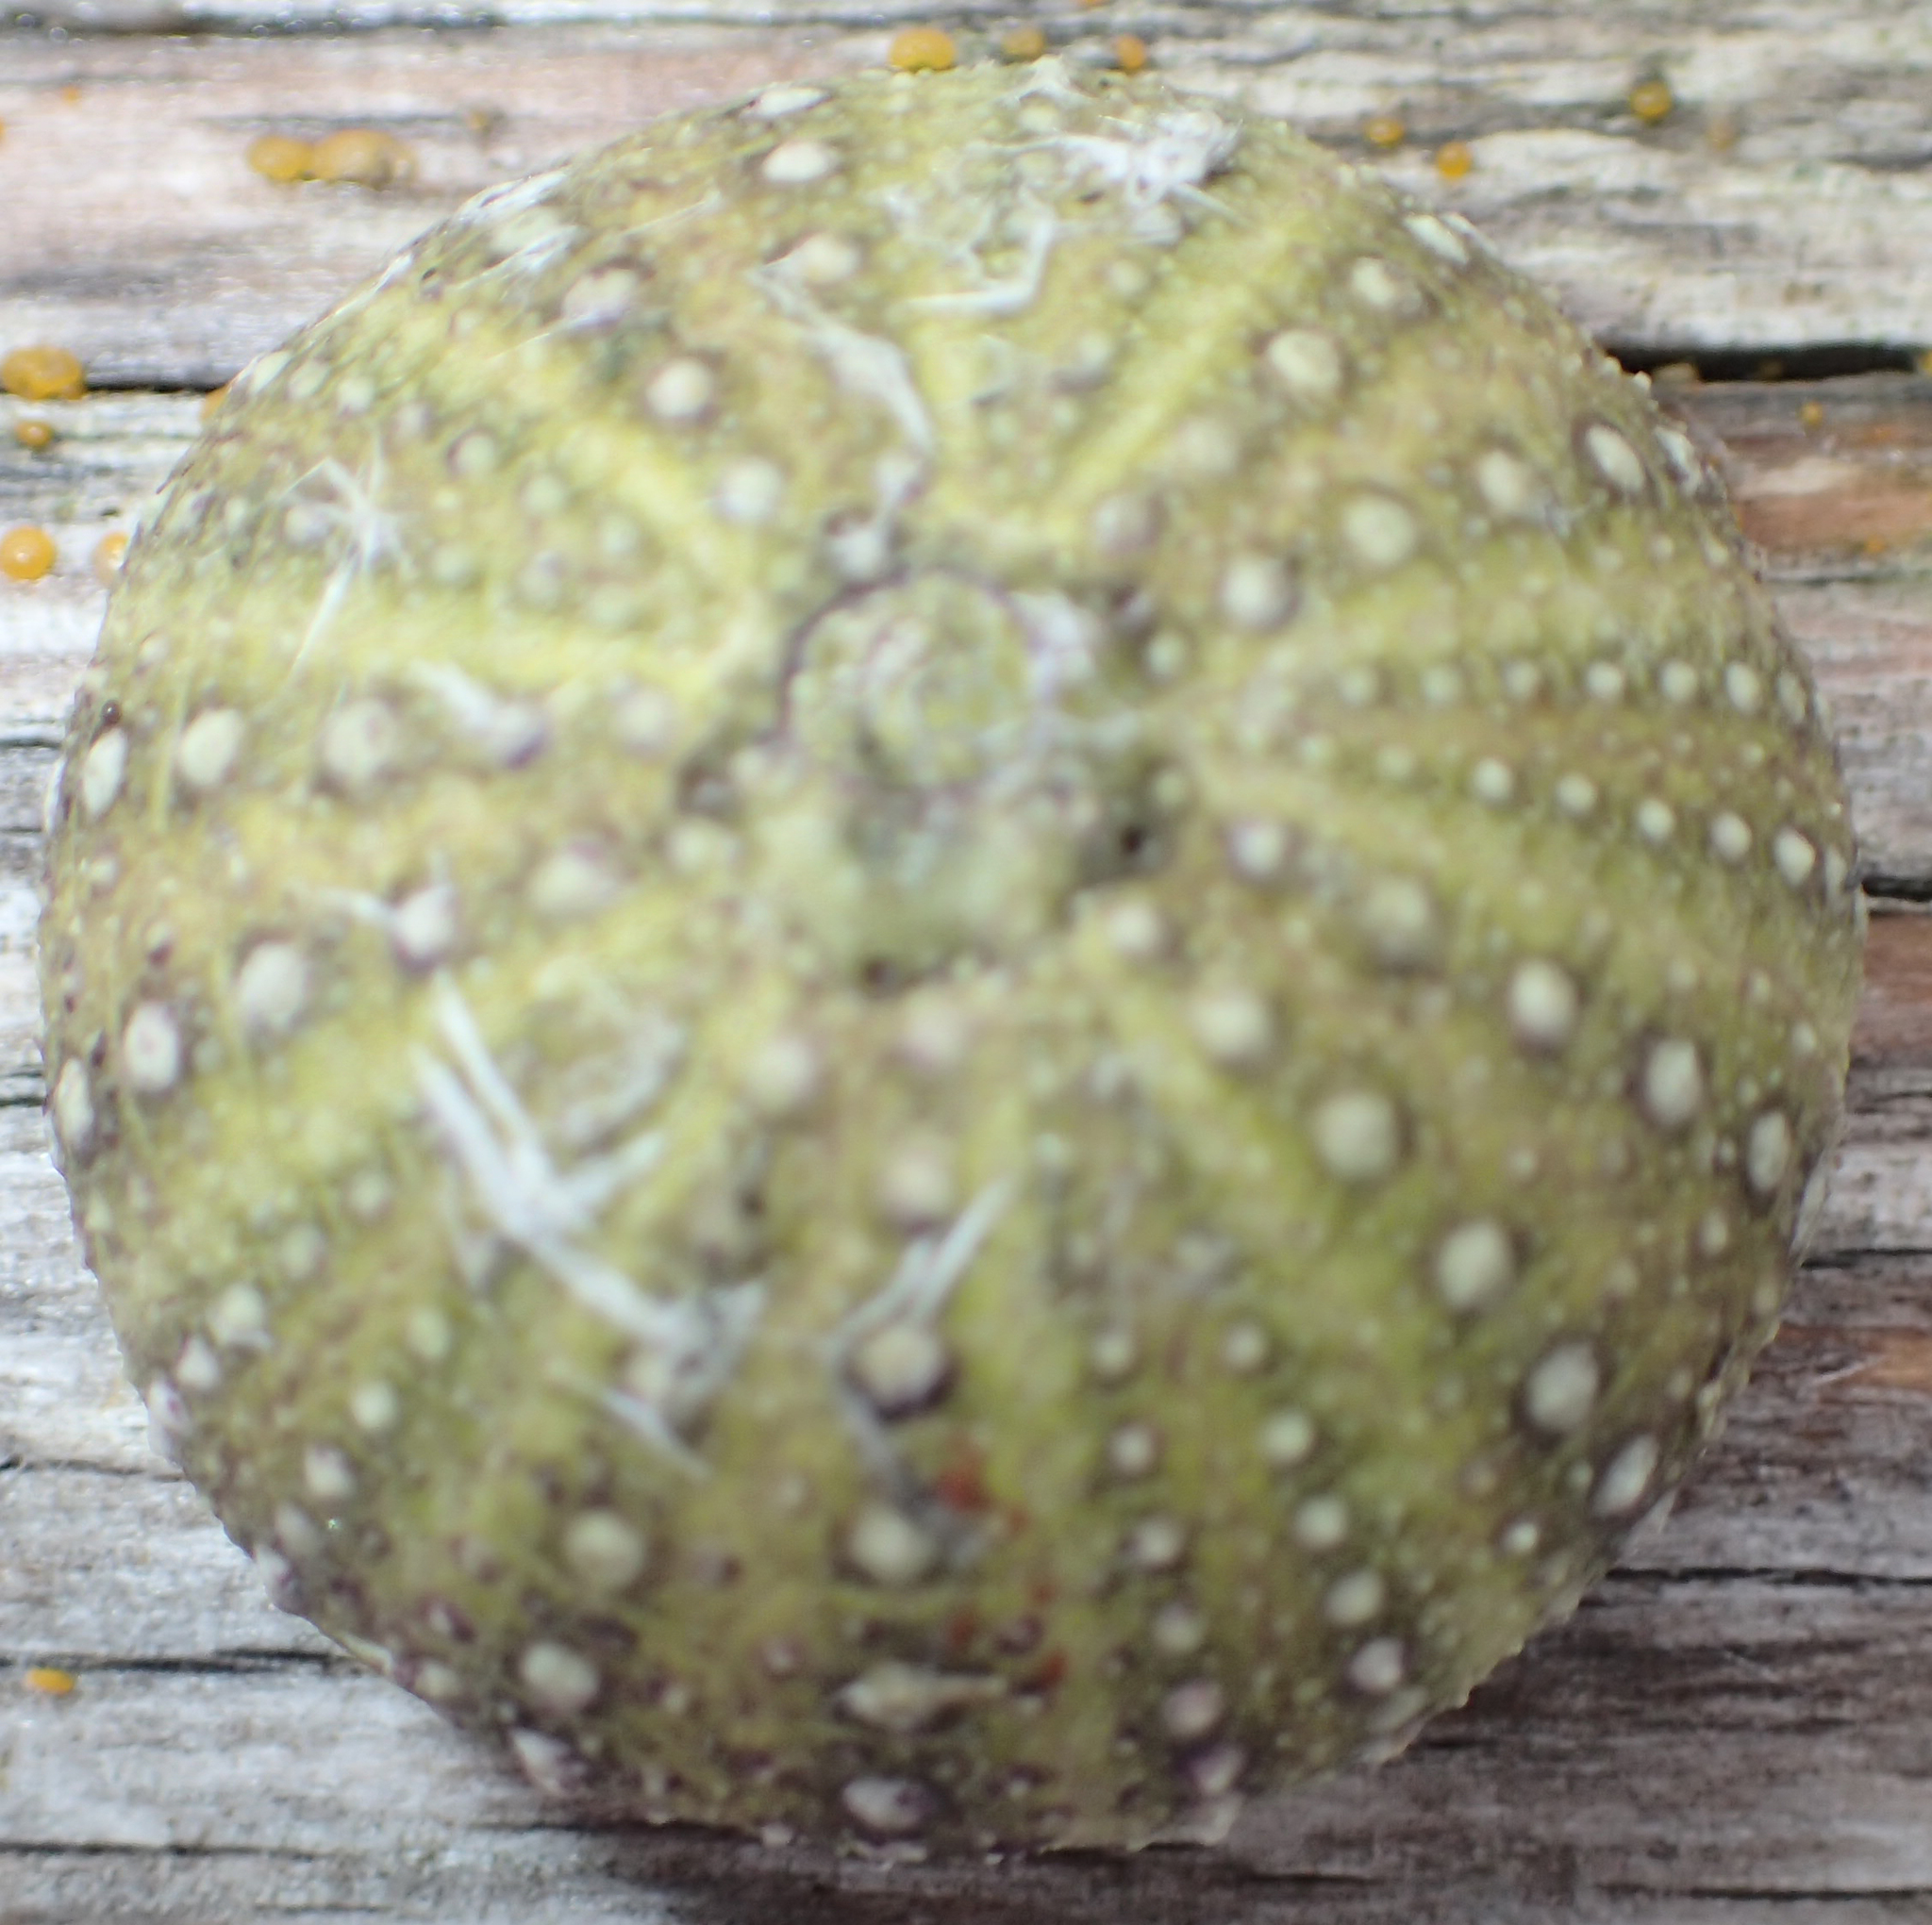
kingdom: Animalia
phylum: Echinodermata
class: Echinoidea
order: Camarodonta
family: Strongylocentrotidae
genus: Strongylocentrotus
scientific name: Strongylocentrotus droebachiensis
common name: Northern sea urchin
